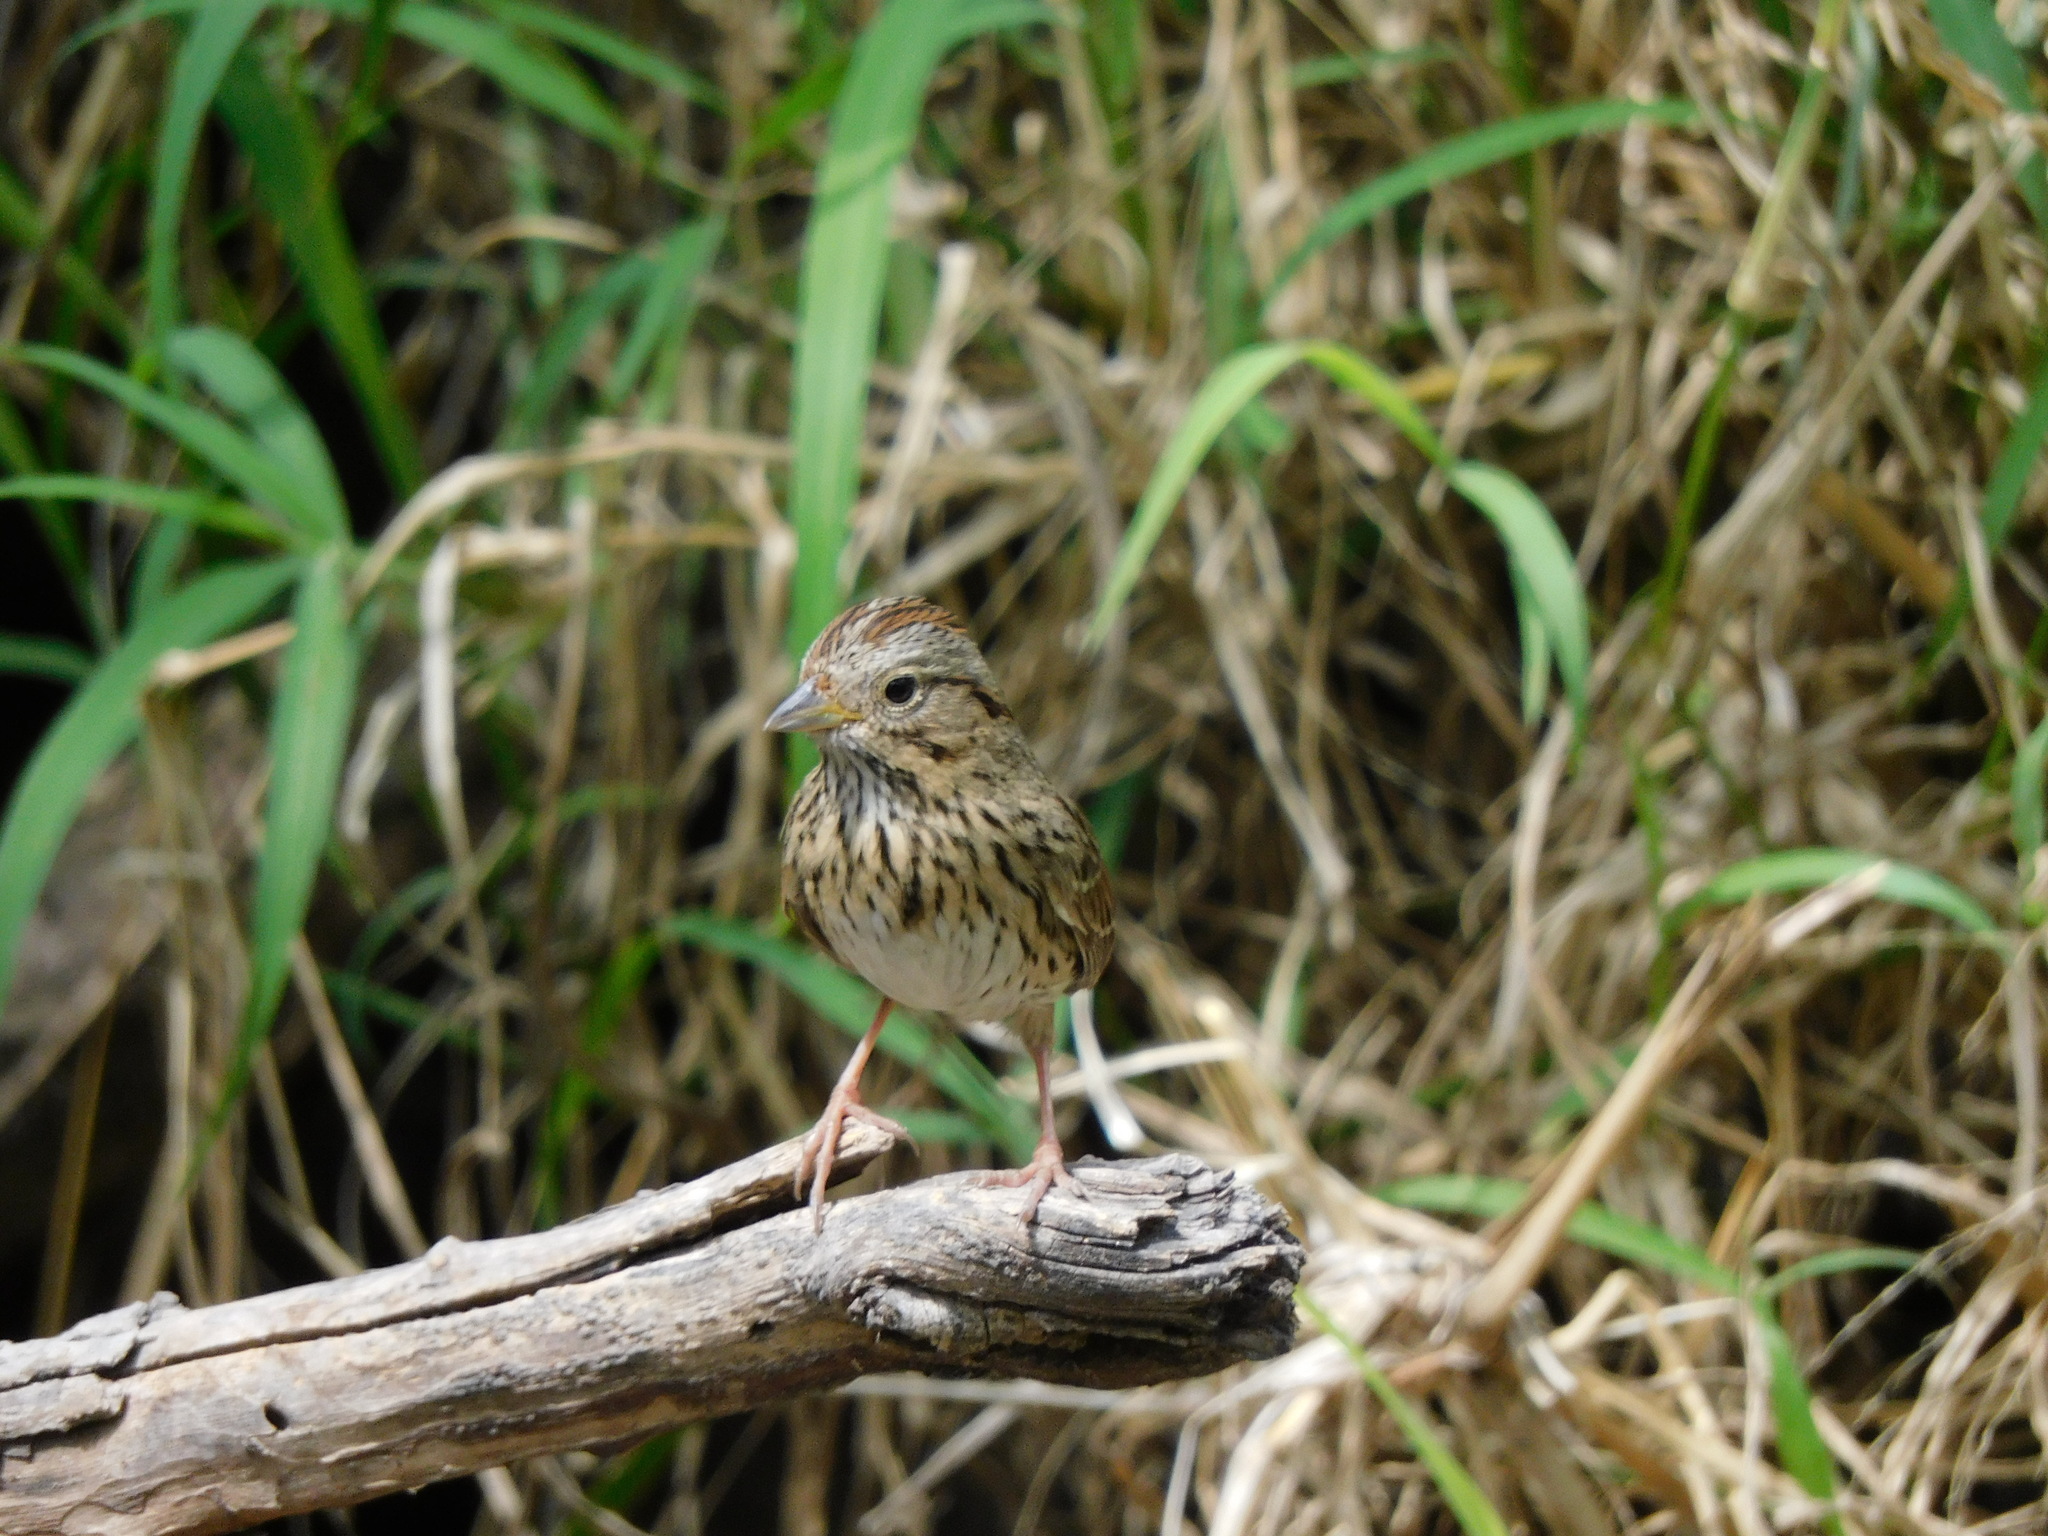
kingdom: Animalia
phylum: Chordata
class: Aves
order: Passeriformes
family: Passerellidae
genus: Melospiza
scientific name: Melospiza lincolnii
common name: Lincoln's sparrow
